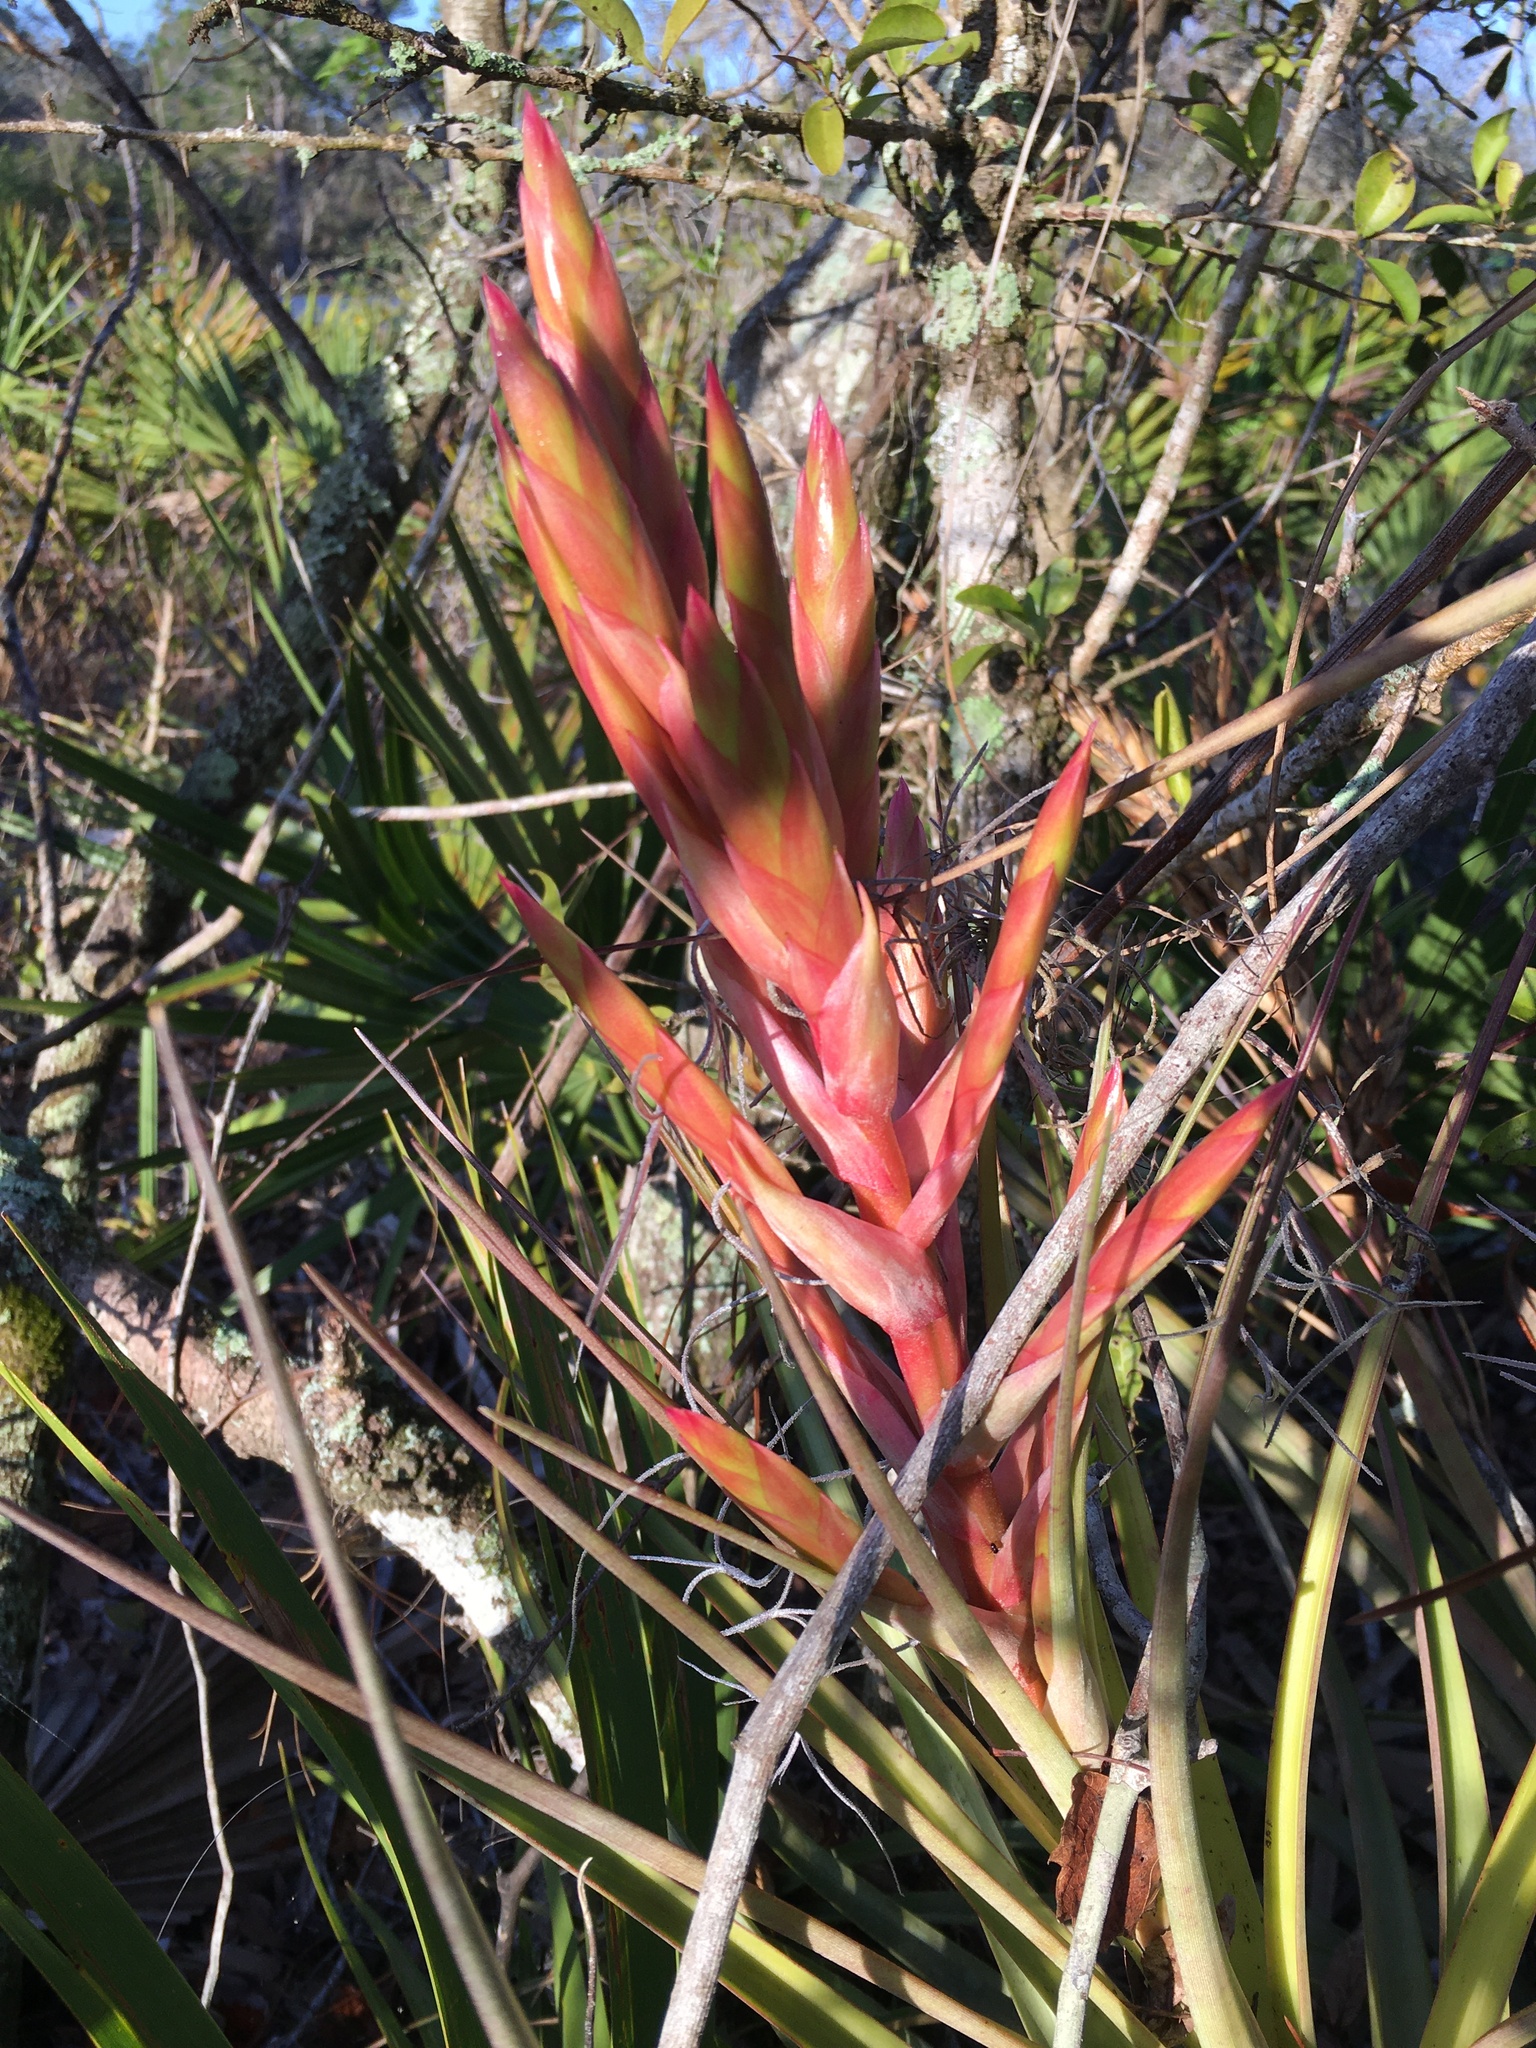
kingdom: Plantae
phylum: Tracheophyta
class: Liliopsida
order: Poales
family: Bromeliaceae
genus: Tillandsia
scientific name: Tillandsia fasciculata
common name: Giant airplant
